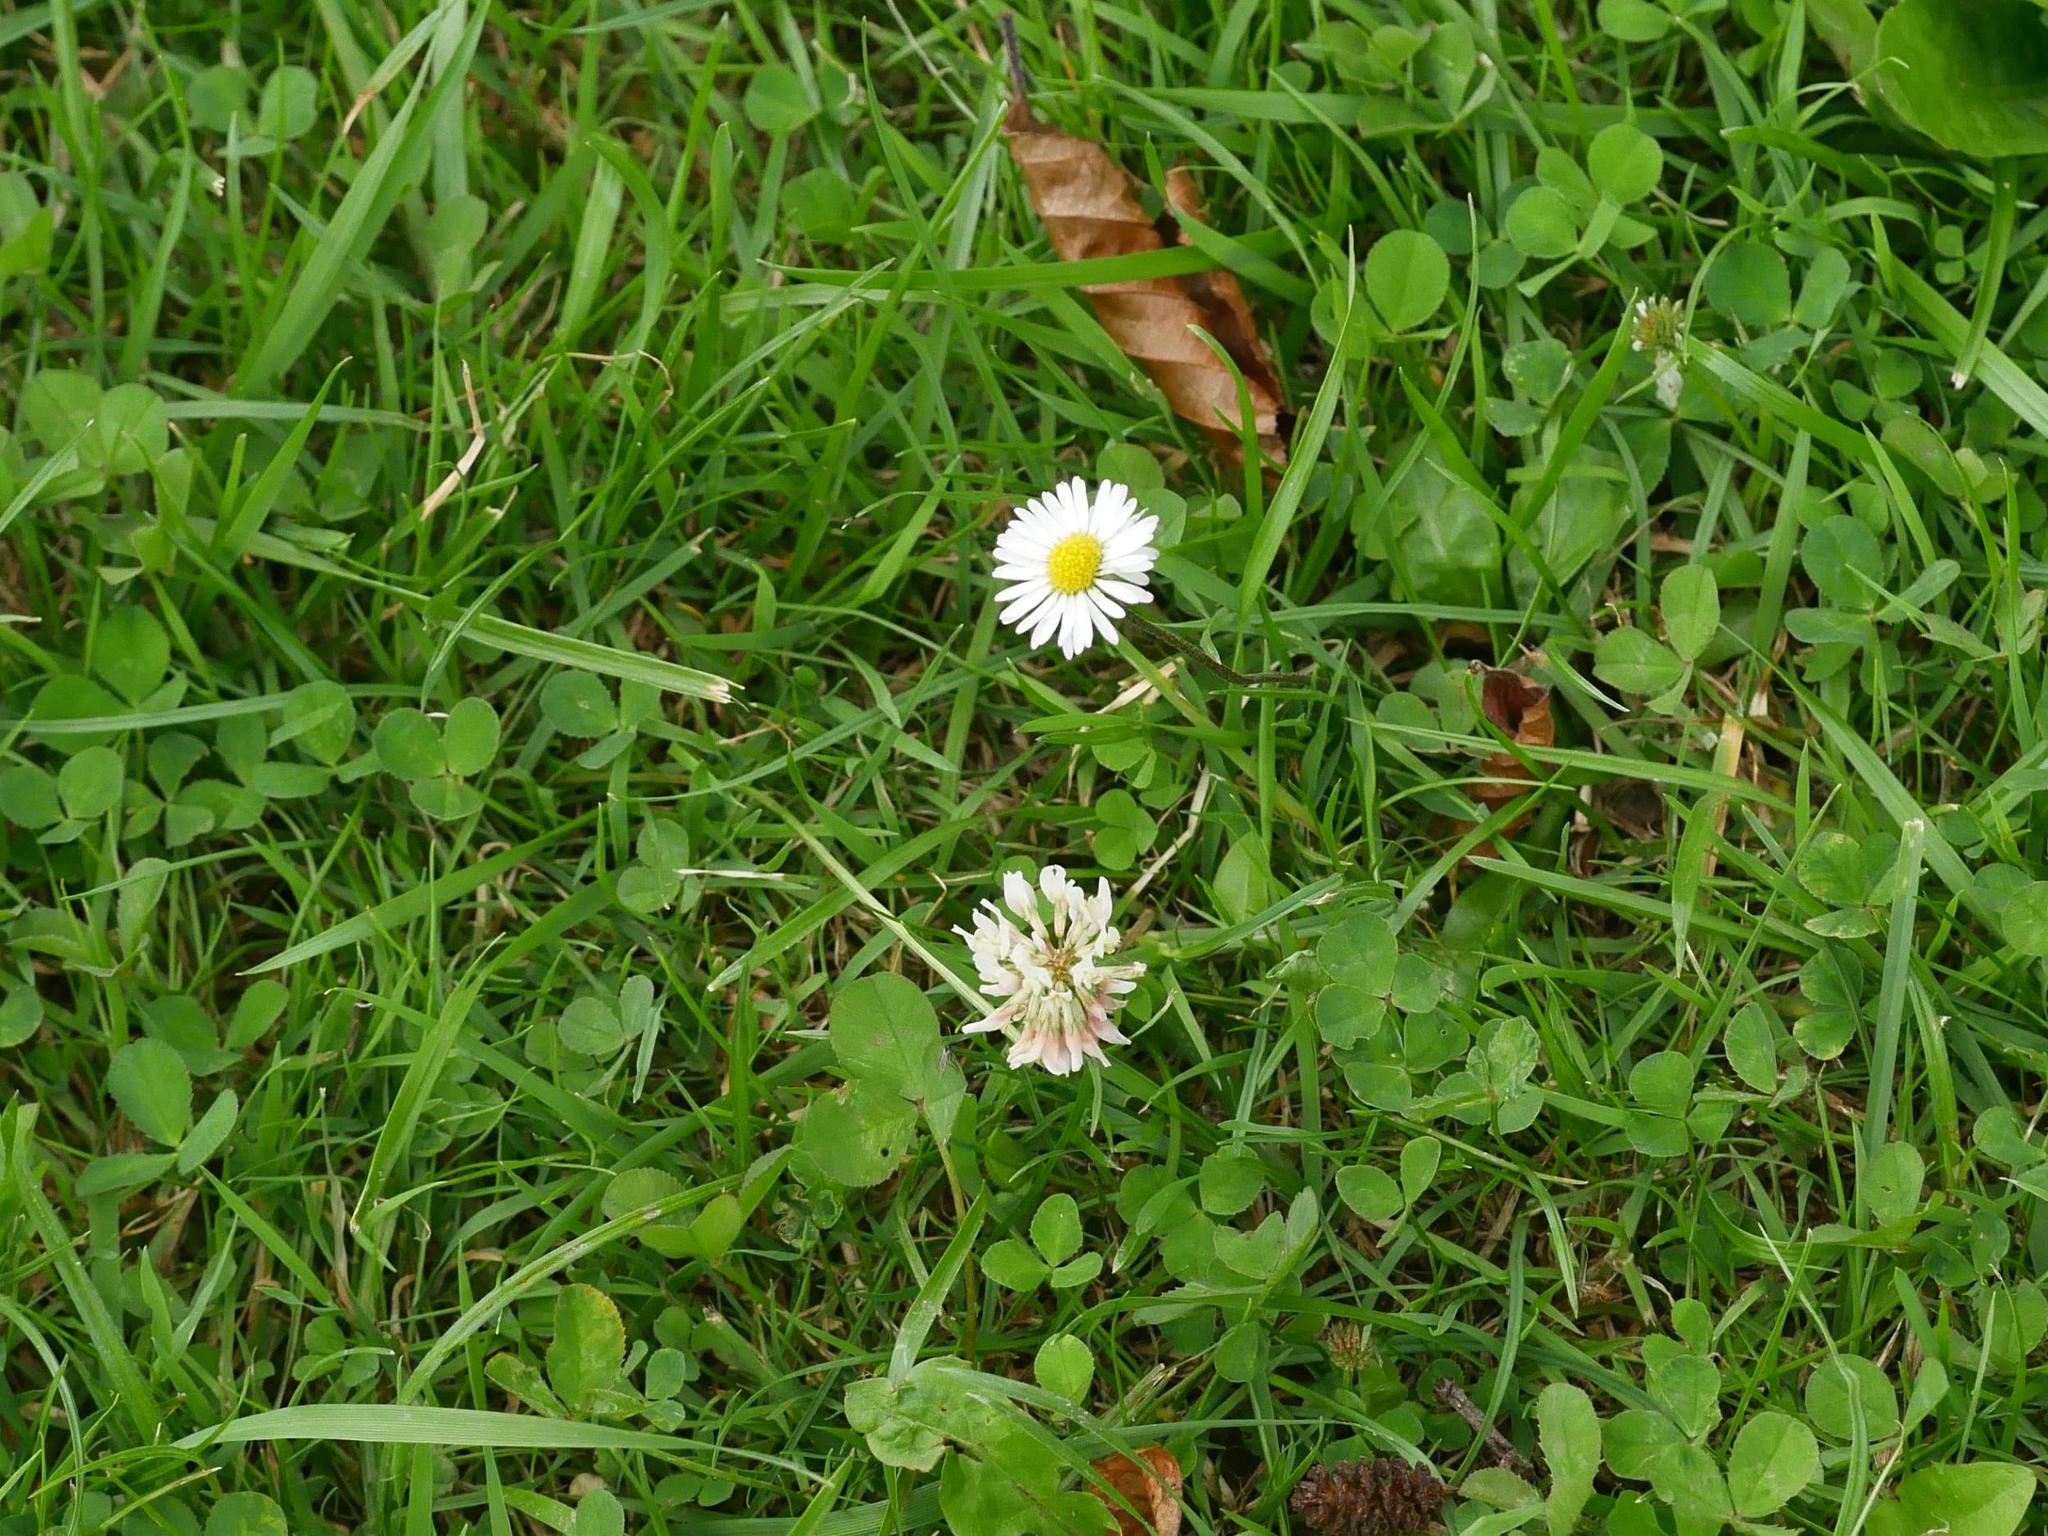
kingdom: Plantae
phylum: Tracheophyta
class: Magnoliopsida
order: Fabales
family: Fabaceae
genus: Trifolium
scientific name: Trifolium repens
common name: White clover
